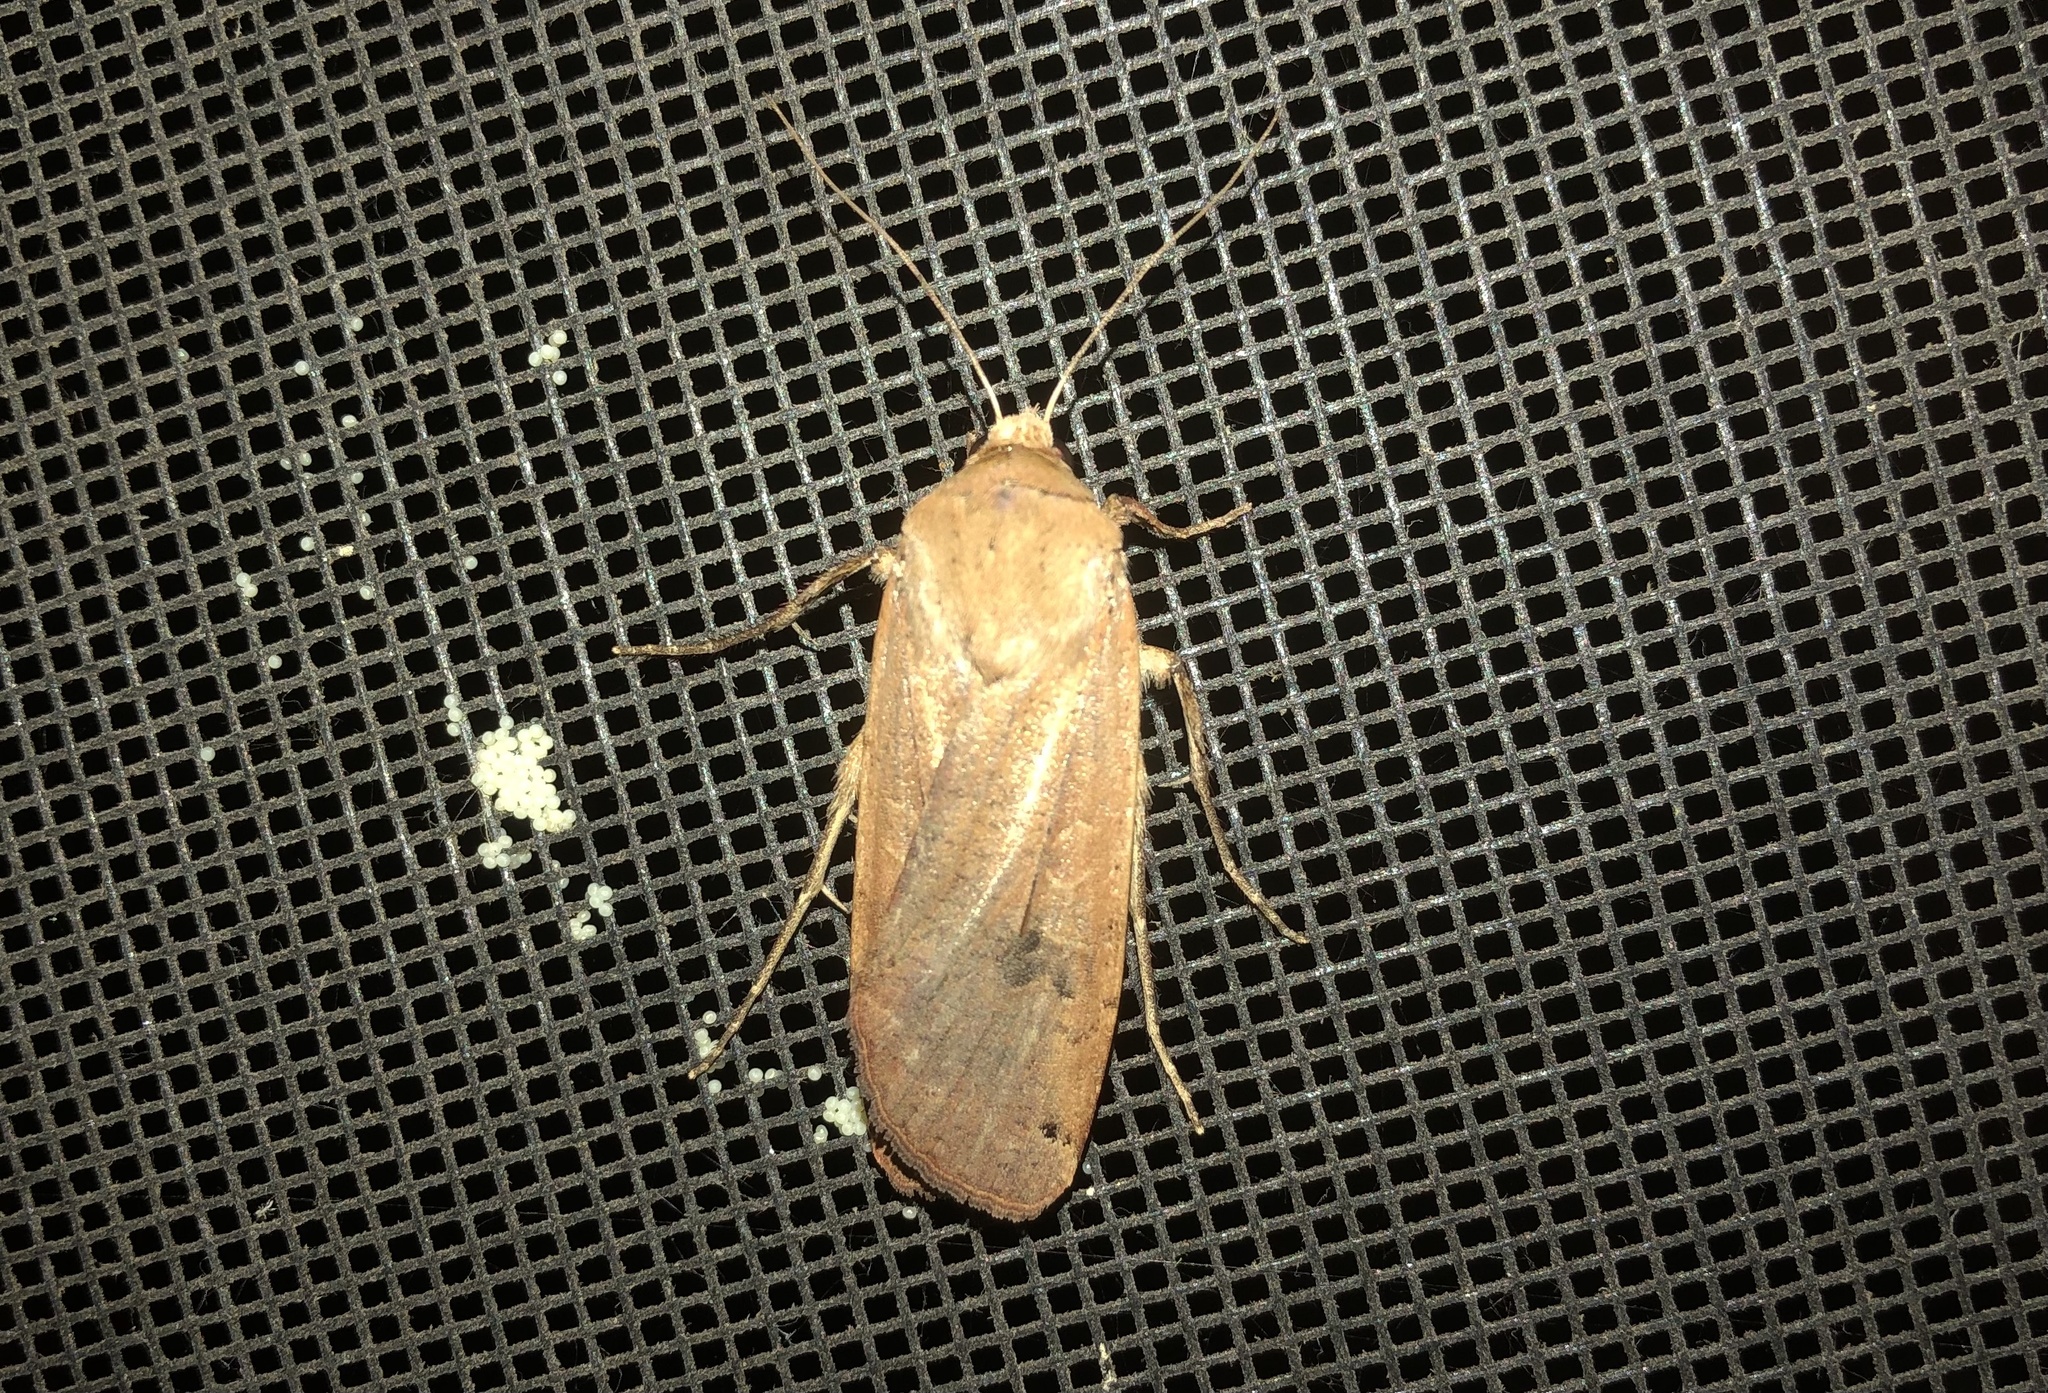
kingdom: Animalia
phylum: Arthropoda
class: Insecta
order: Lepidoptera
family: Noctuidae
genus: Noctua
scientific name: Noctua pronuba
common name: Large yellow underwing
